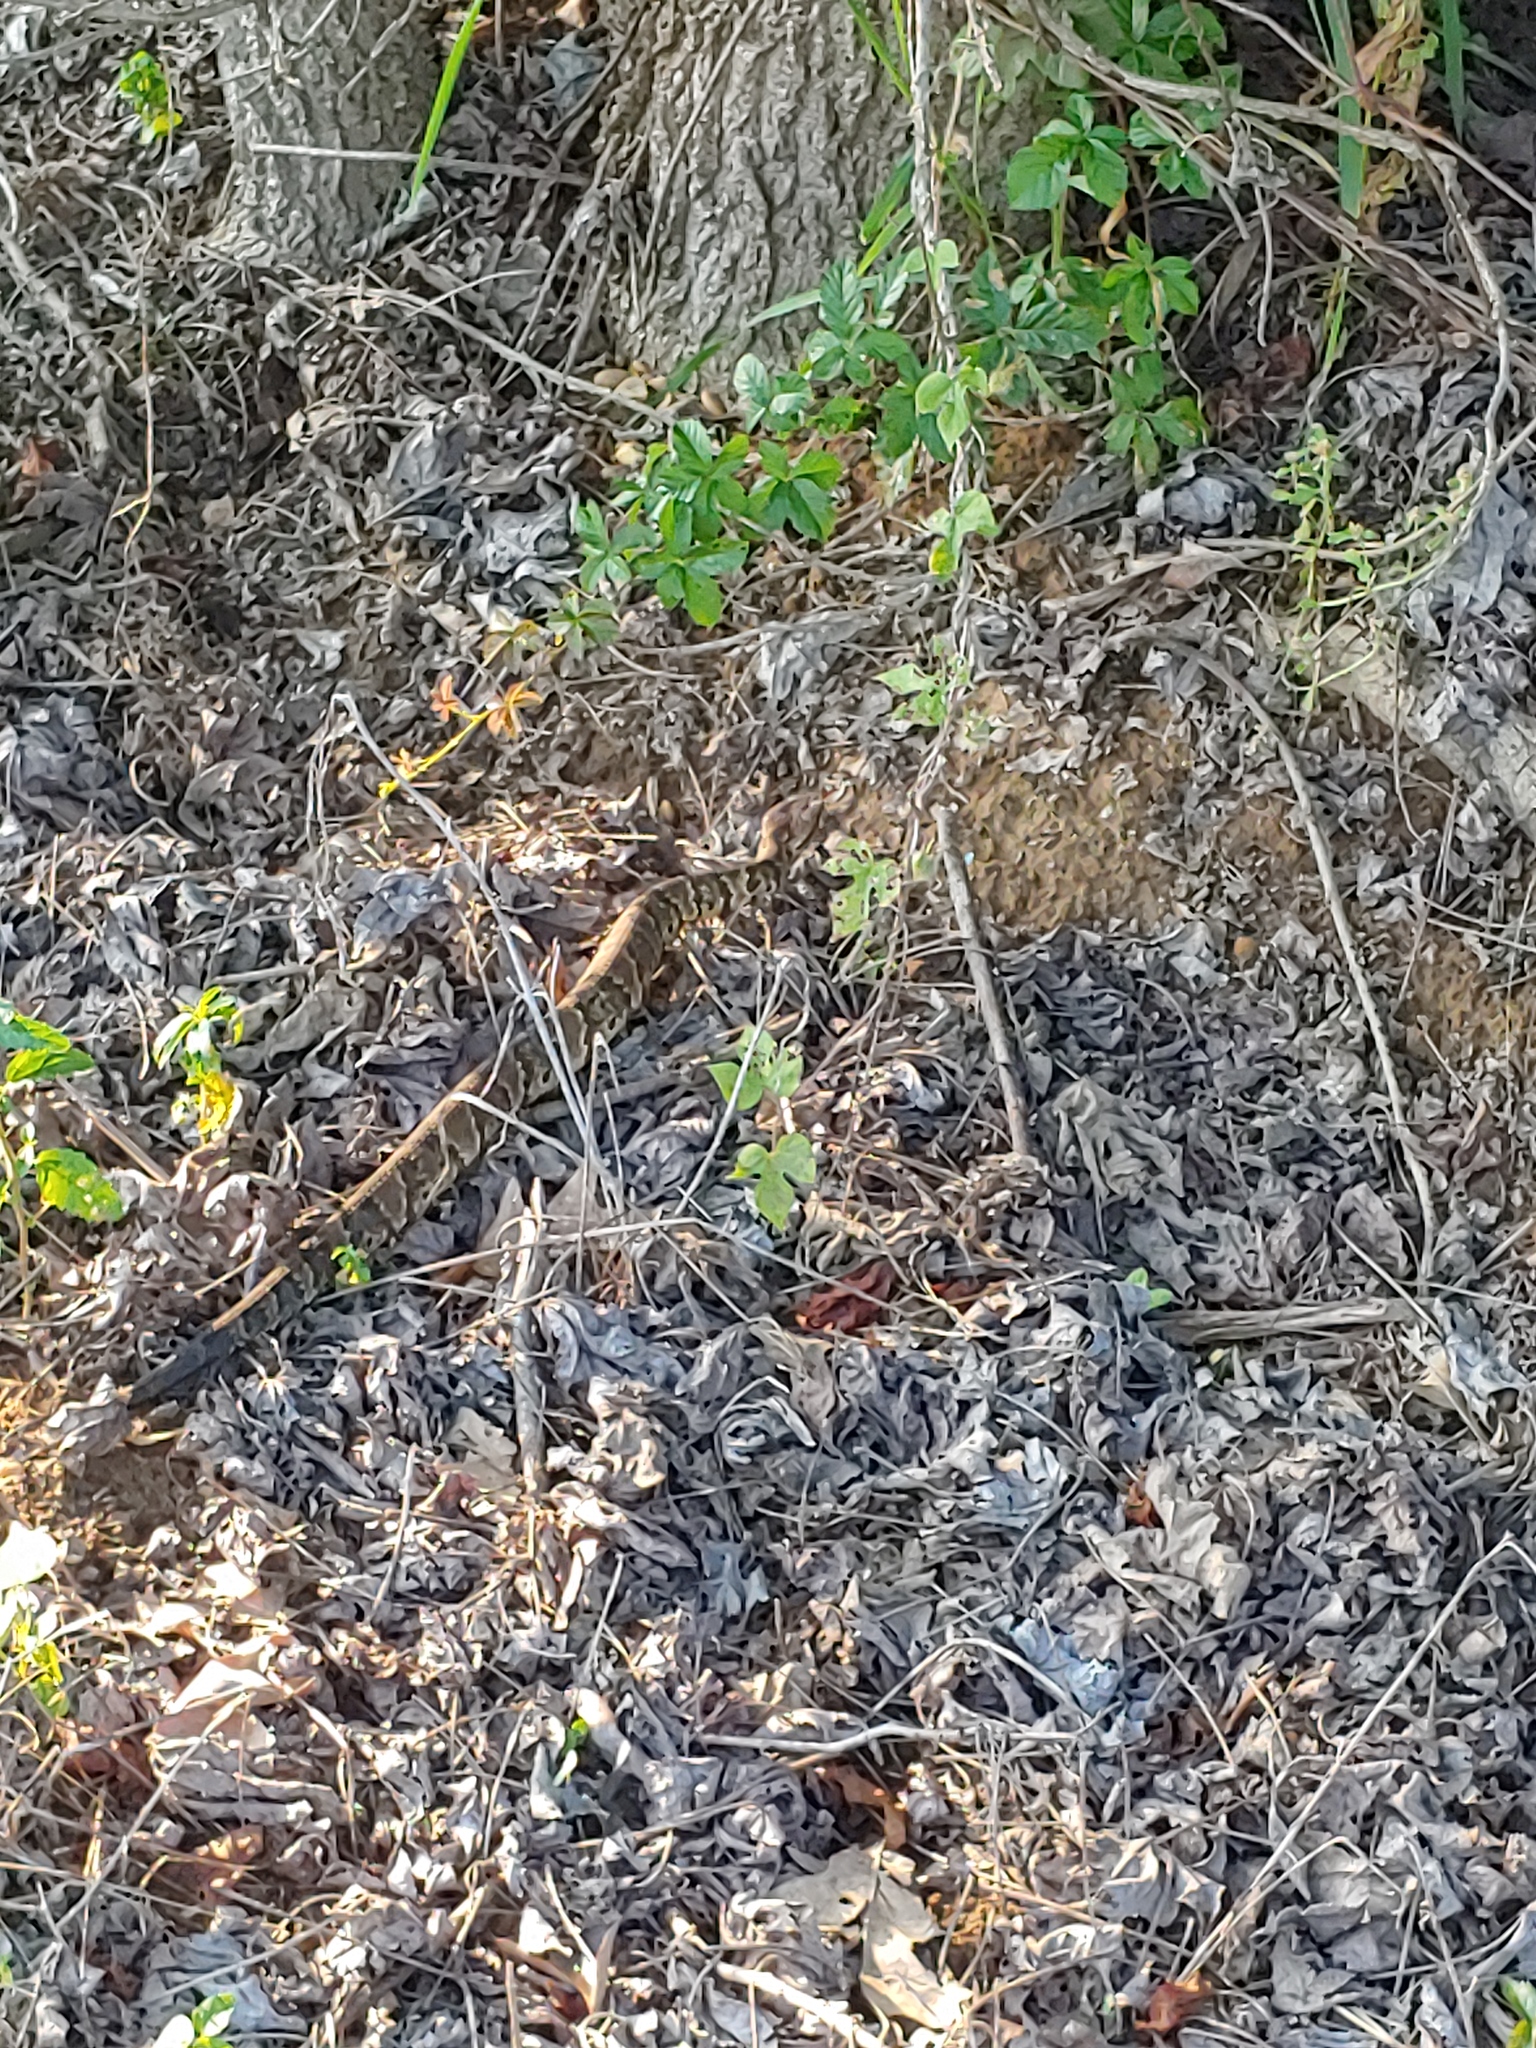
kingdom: Animalia
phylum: Chordata
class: Squamata
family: Viperidae
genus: Agkistrodon
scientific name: Agkistrodon piscivorus
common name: Cottonmouth
